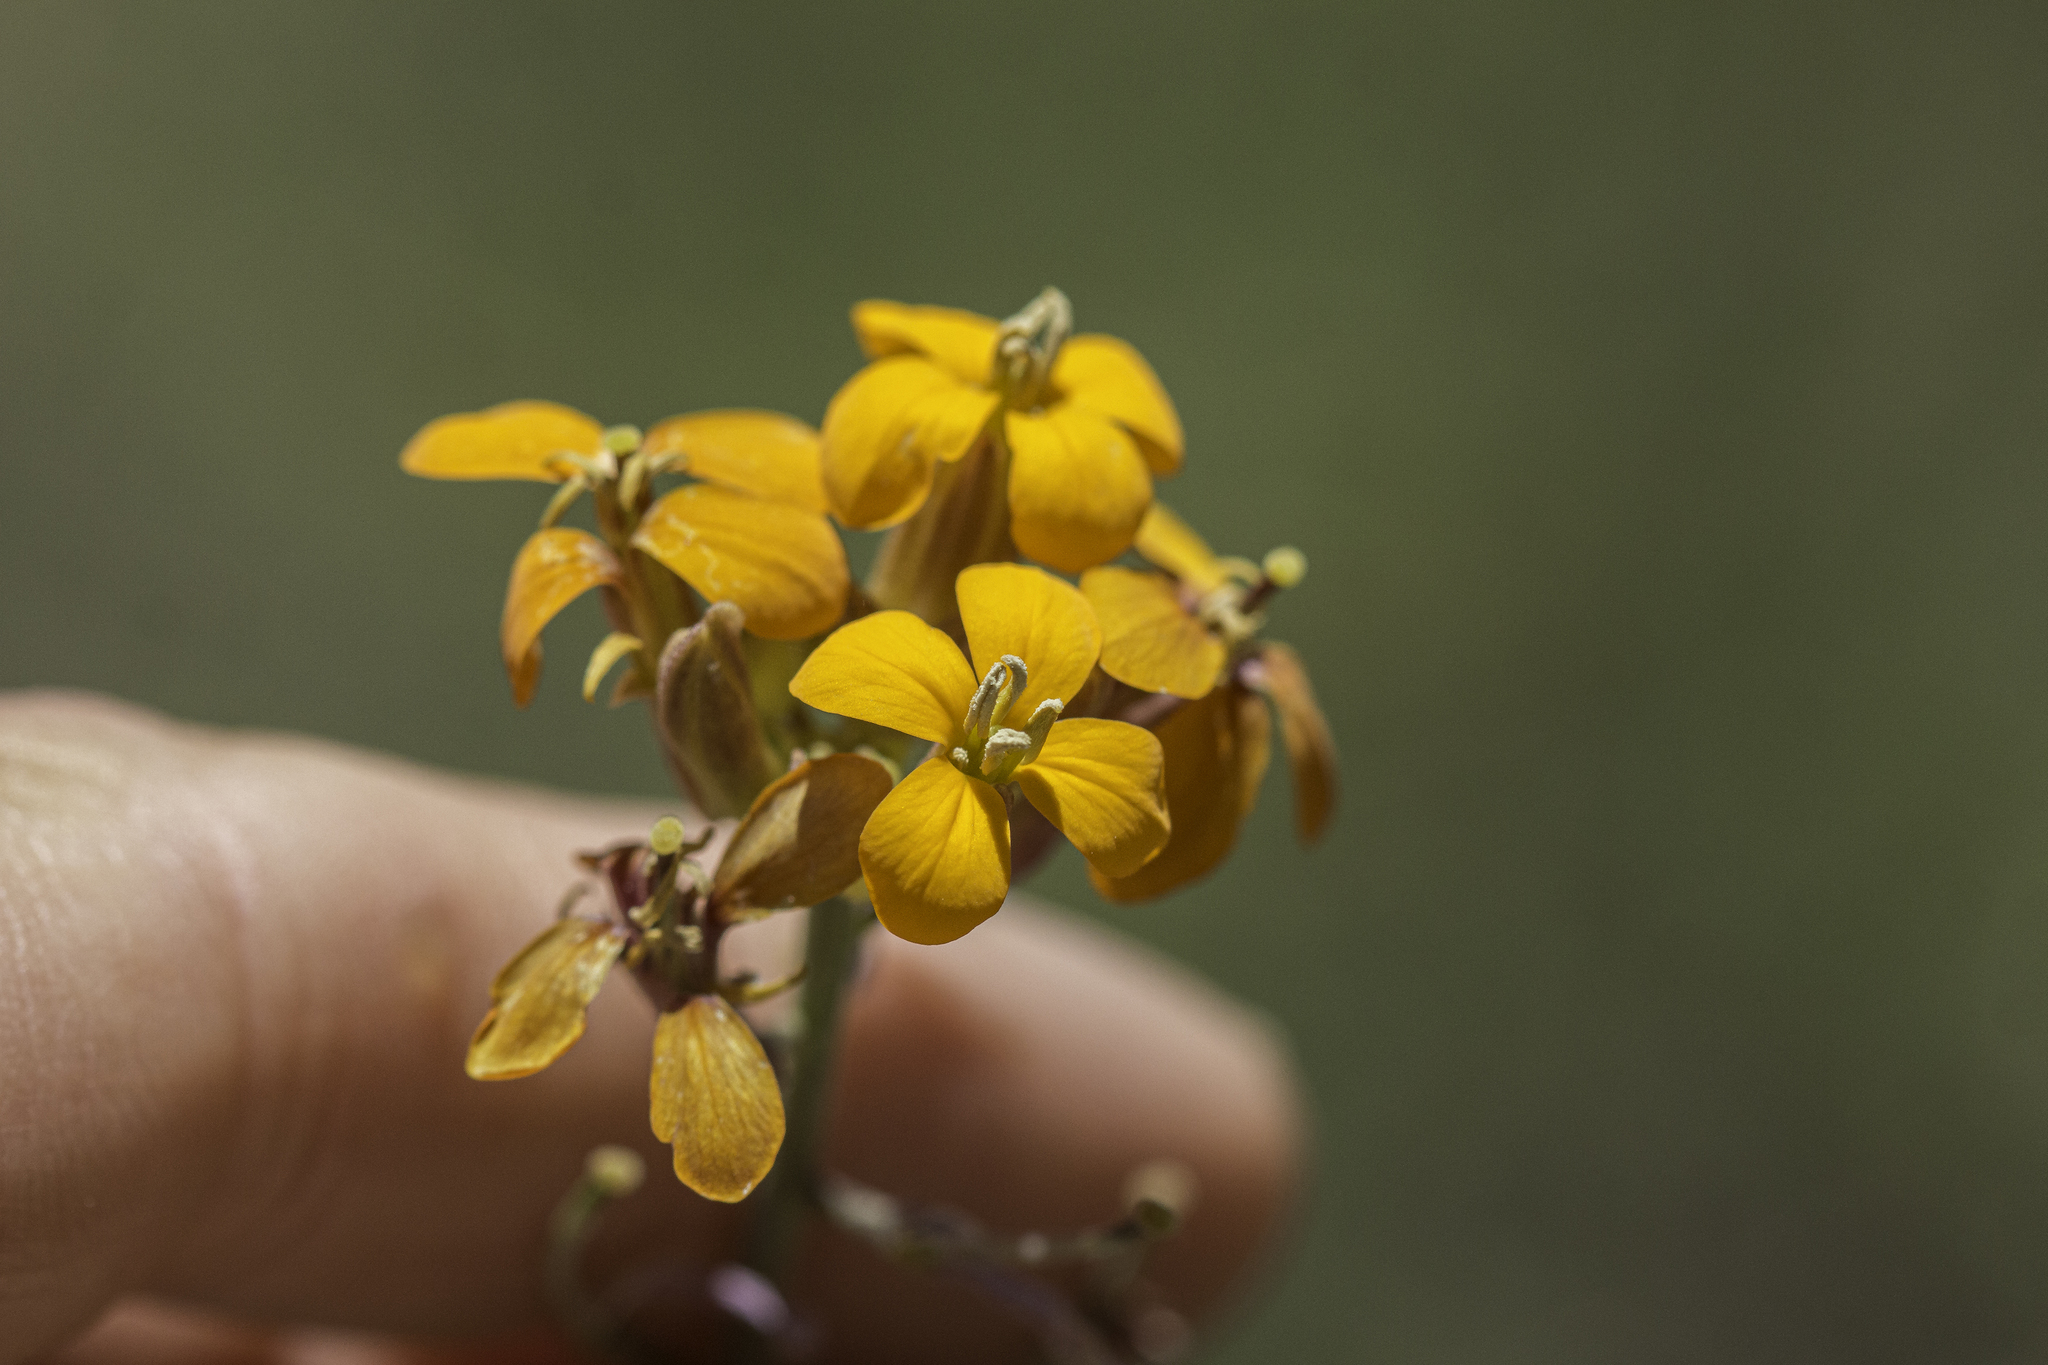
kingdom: Plantae
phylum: Tracheophyta
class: Magnoliopsida
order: Brassicales
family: Brassicaceae
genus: Erysimum
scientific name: Erysimum capitatum
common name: Western wallflower
